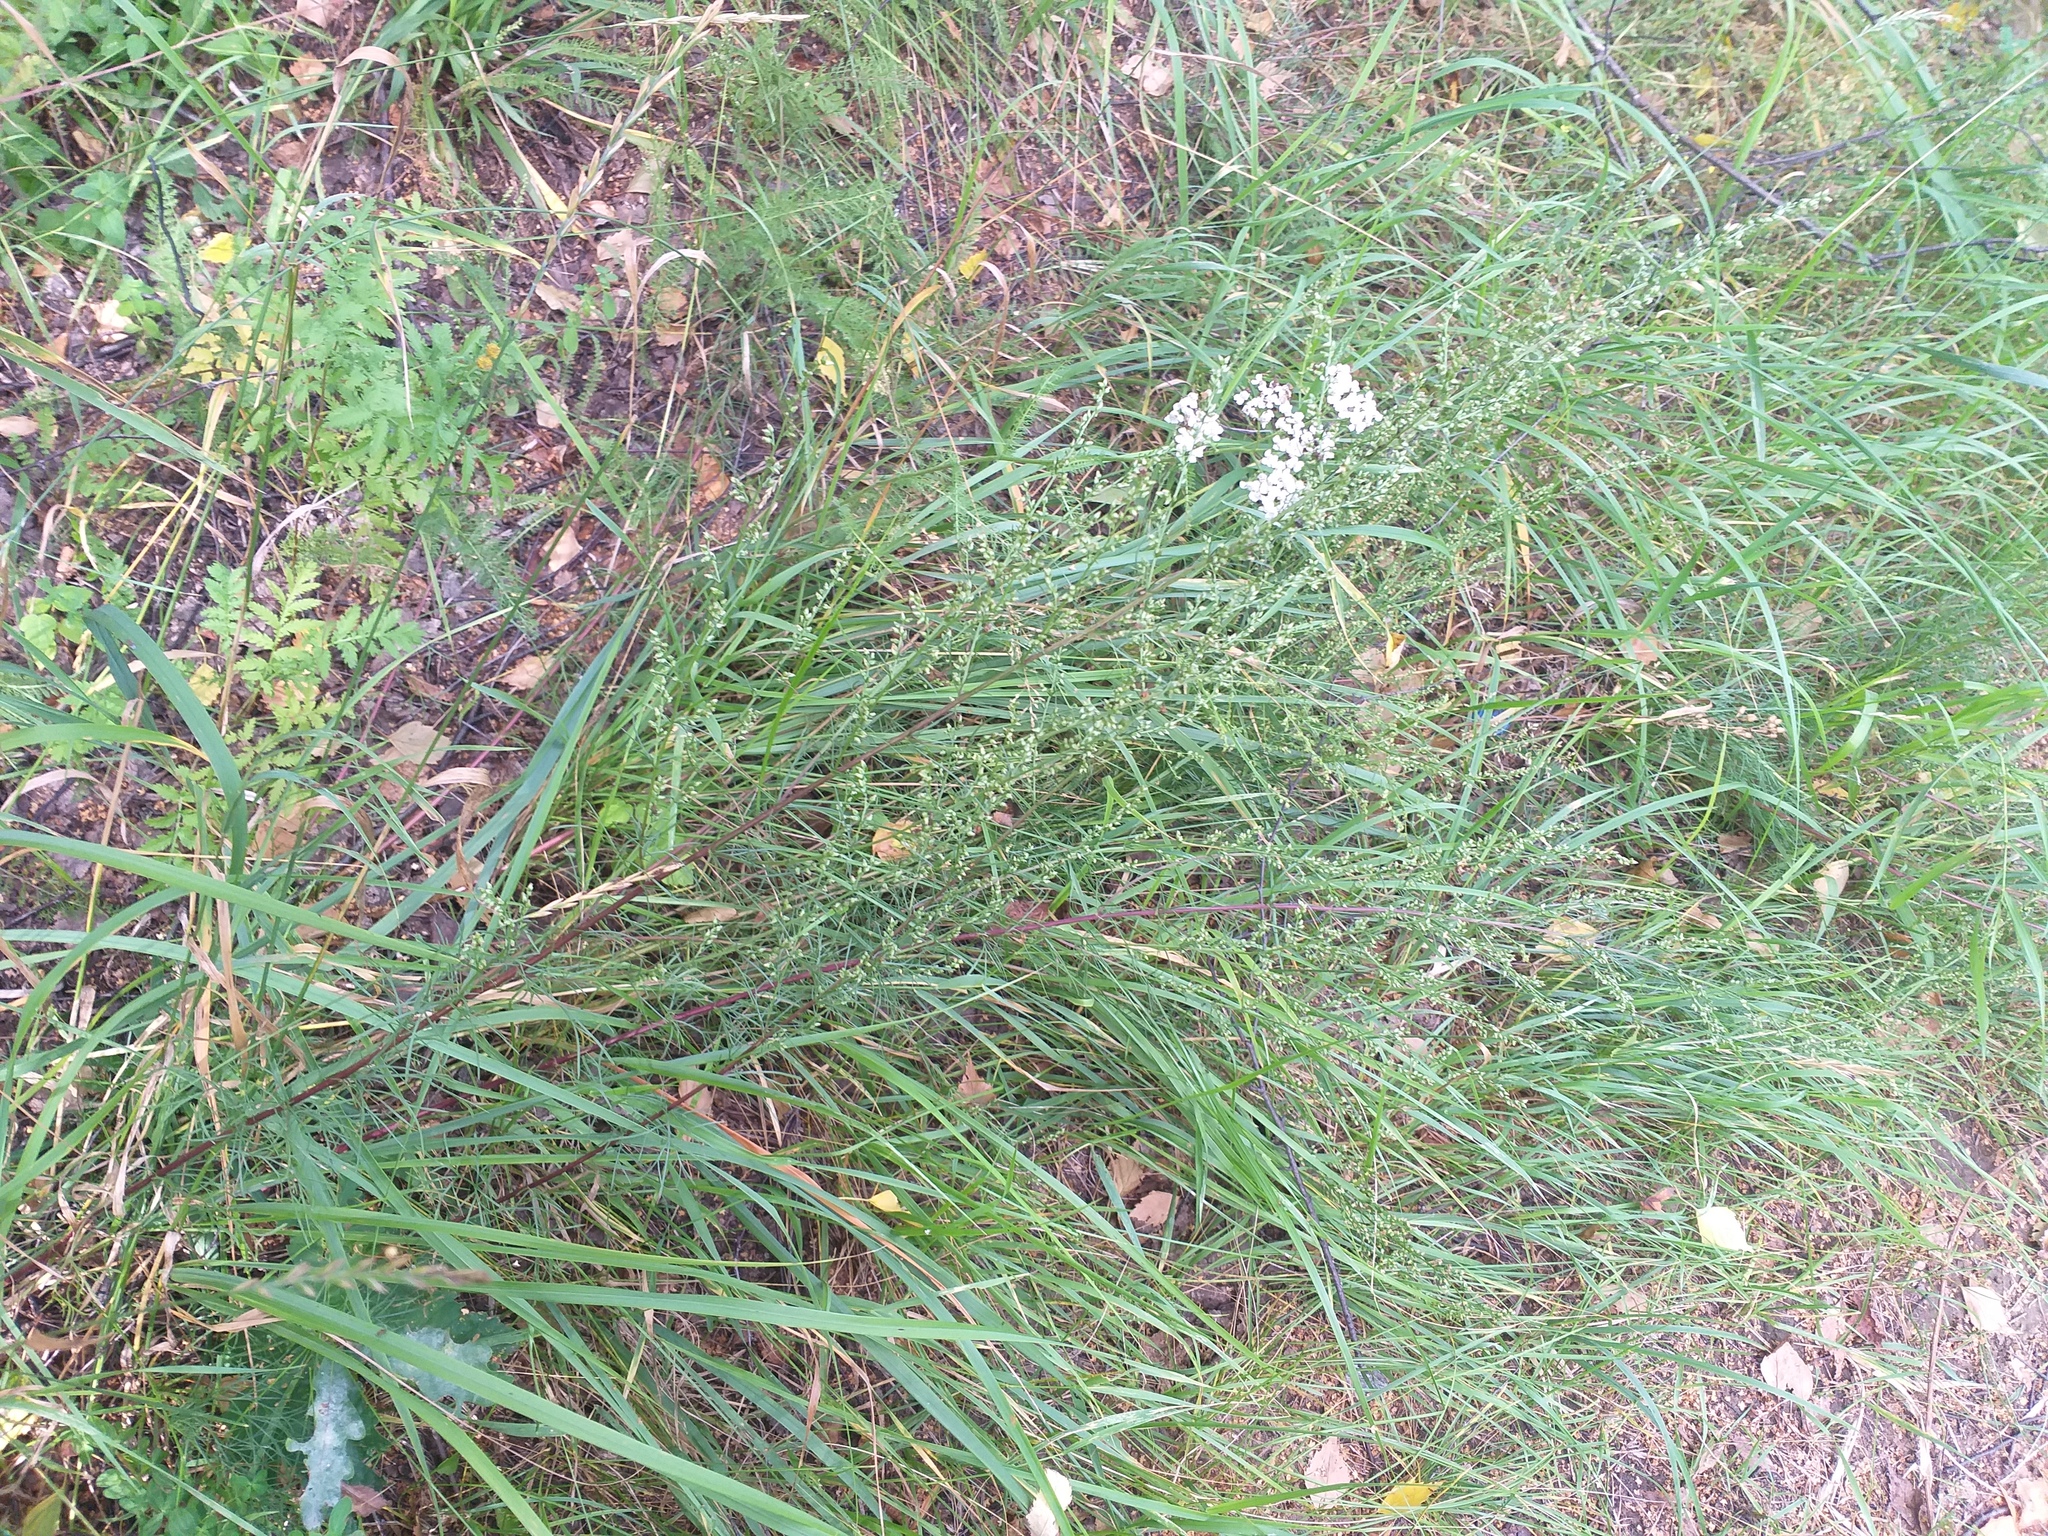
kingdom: Plantae
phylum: Tracheophyta
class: Magnoliopsida
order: Asterales
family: Asteraceae
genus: Artemisia
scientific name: Artemisia campestris
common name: Field wormwood
